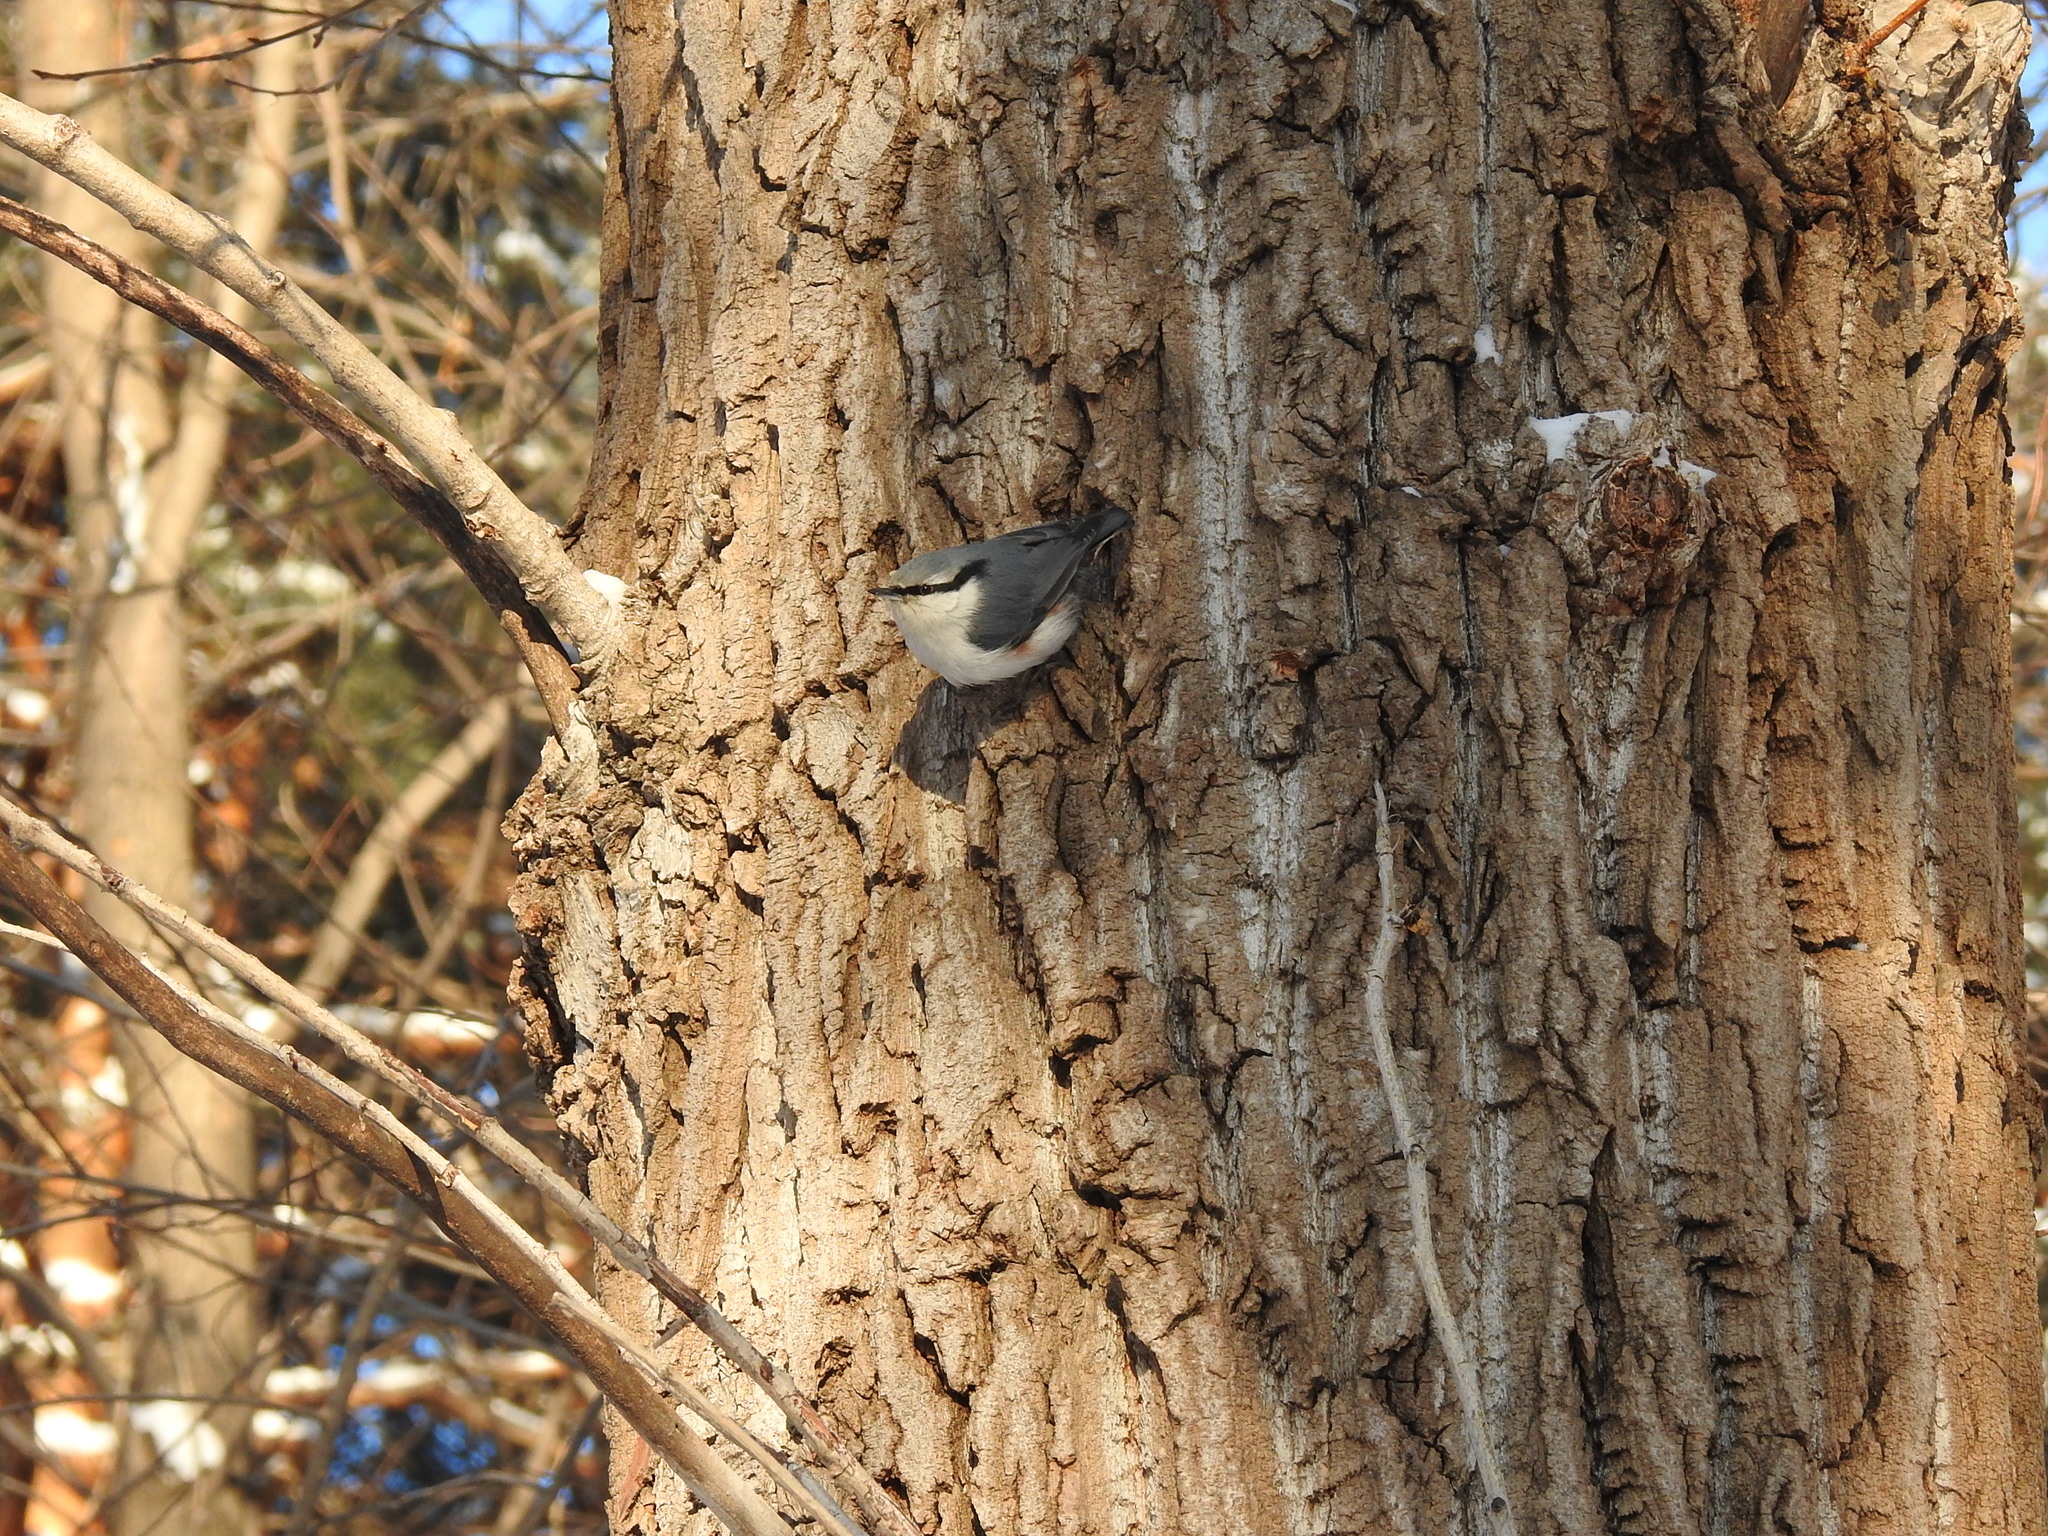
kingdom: Animalia
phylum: Chordata
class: Aves
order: Passeriformes
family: Sittidae
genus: Sitta
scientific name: Sitta europaea
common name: Eurasian nuthatch
